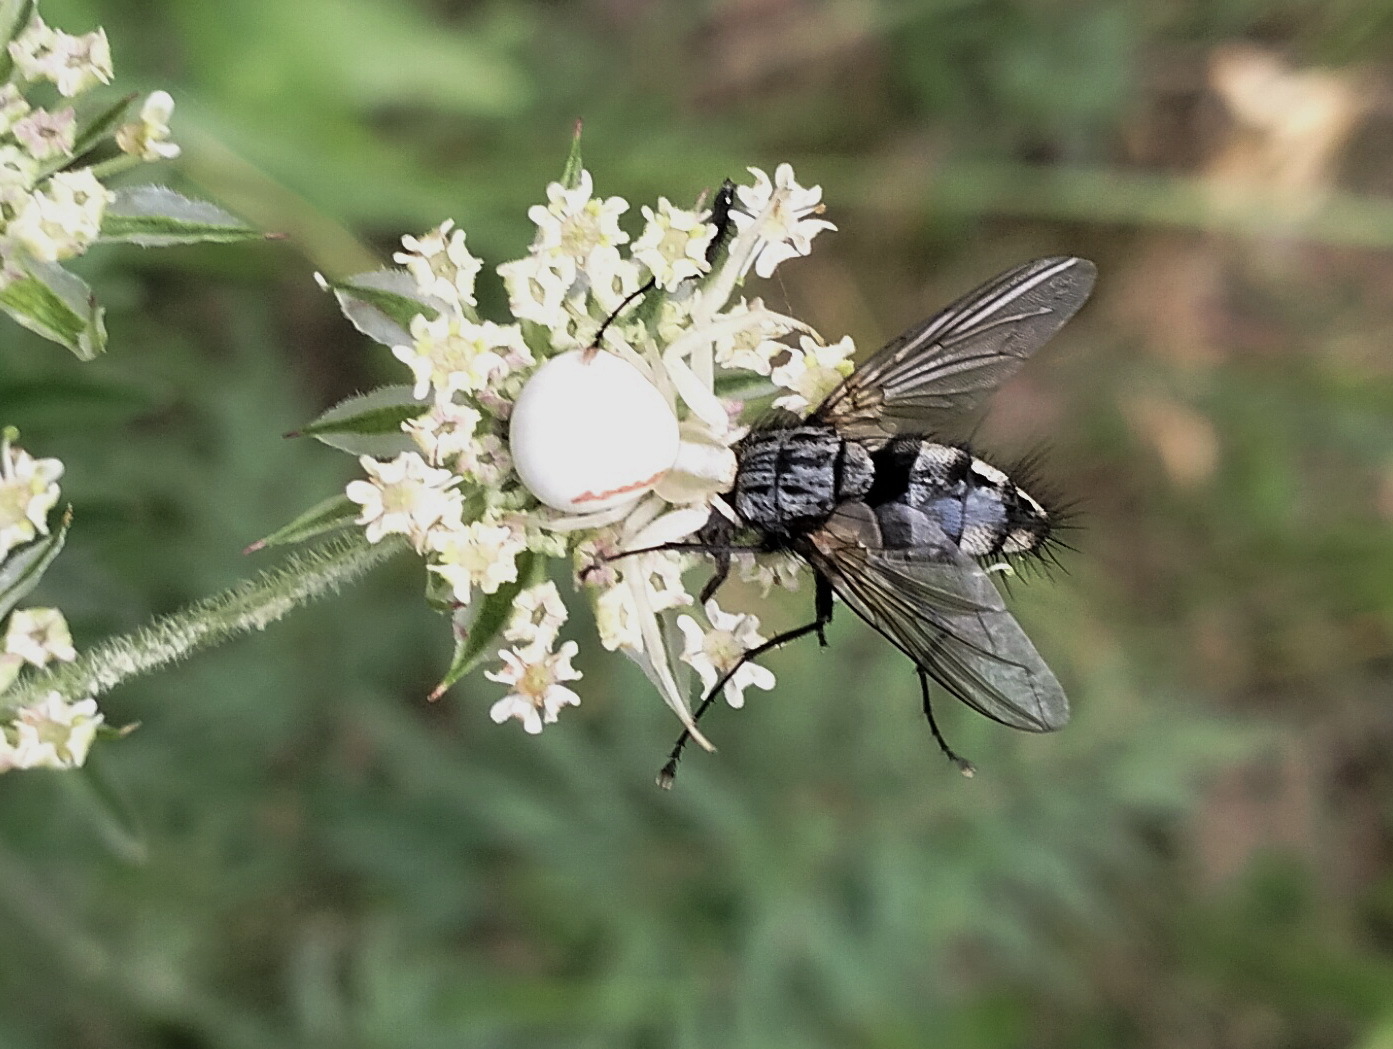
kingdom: Animalia
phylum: Arthropoda
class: Arachnida
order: Araneae
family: Thomisidae
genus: Misumena
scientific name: Misumena vatia
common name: Goldenrod crab spider
